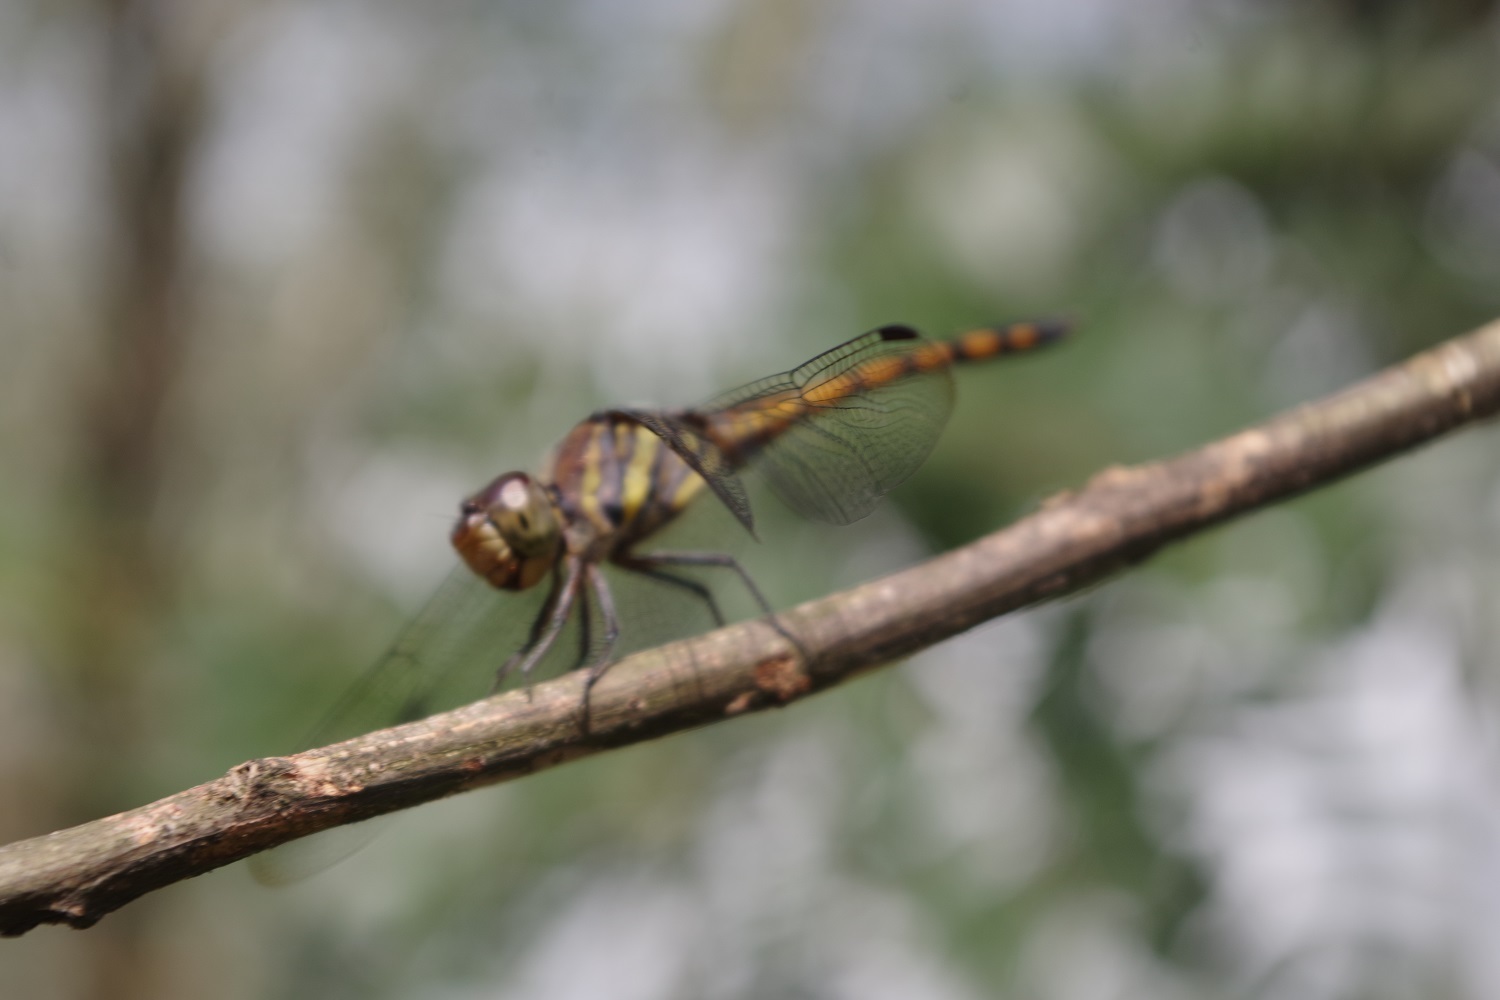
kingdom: Animalia
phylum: Arthropoda
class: Insecta
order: Odonata
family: Libellulidae
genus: Potamarcha
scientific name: Potamarcha congener
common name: Blue chaser
